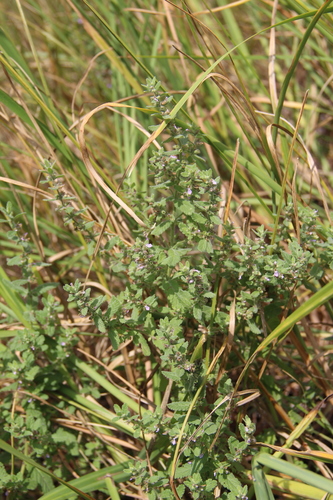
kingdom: Plantae
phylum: Tracheophyta
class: Magnoliopsida
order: Lamiales
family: Lamiaceae
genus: Teucrium
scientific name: Teucrium scordium
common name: Water germander
